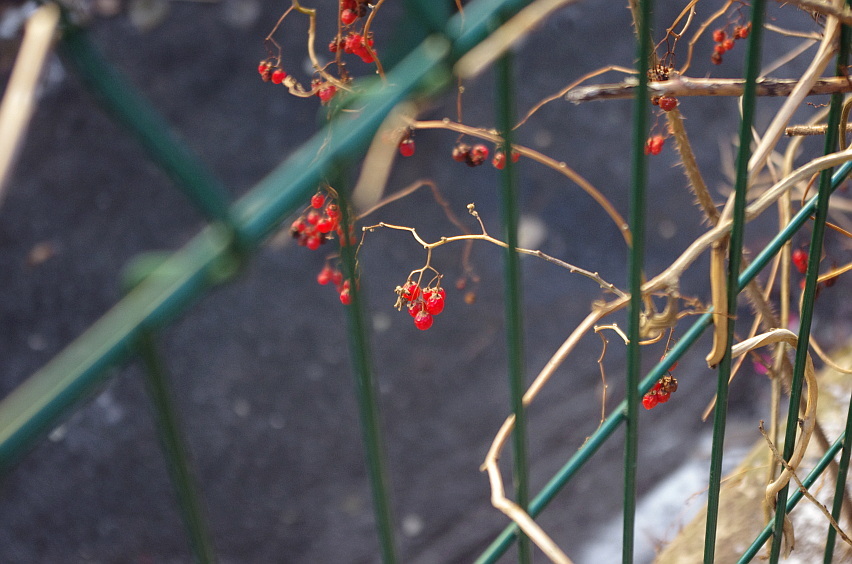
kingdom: Plantae
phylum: Tracheophyta
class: Magnoliopsida
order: Solanales
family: Solanaceae
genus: Solanum
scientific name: Solanum dulcamara
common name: Climbing nightshade
